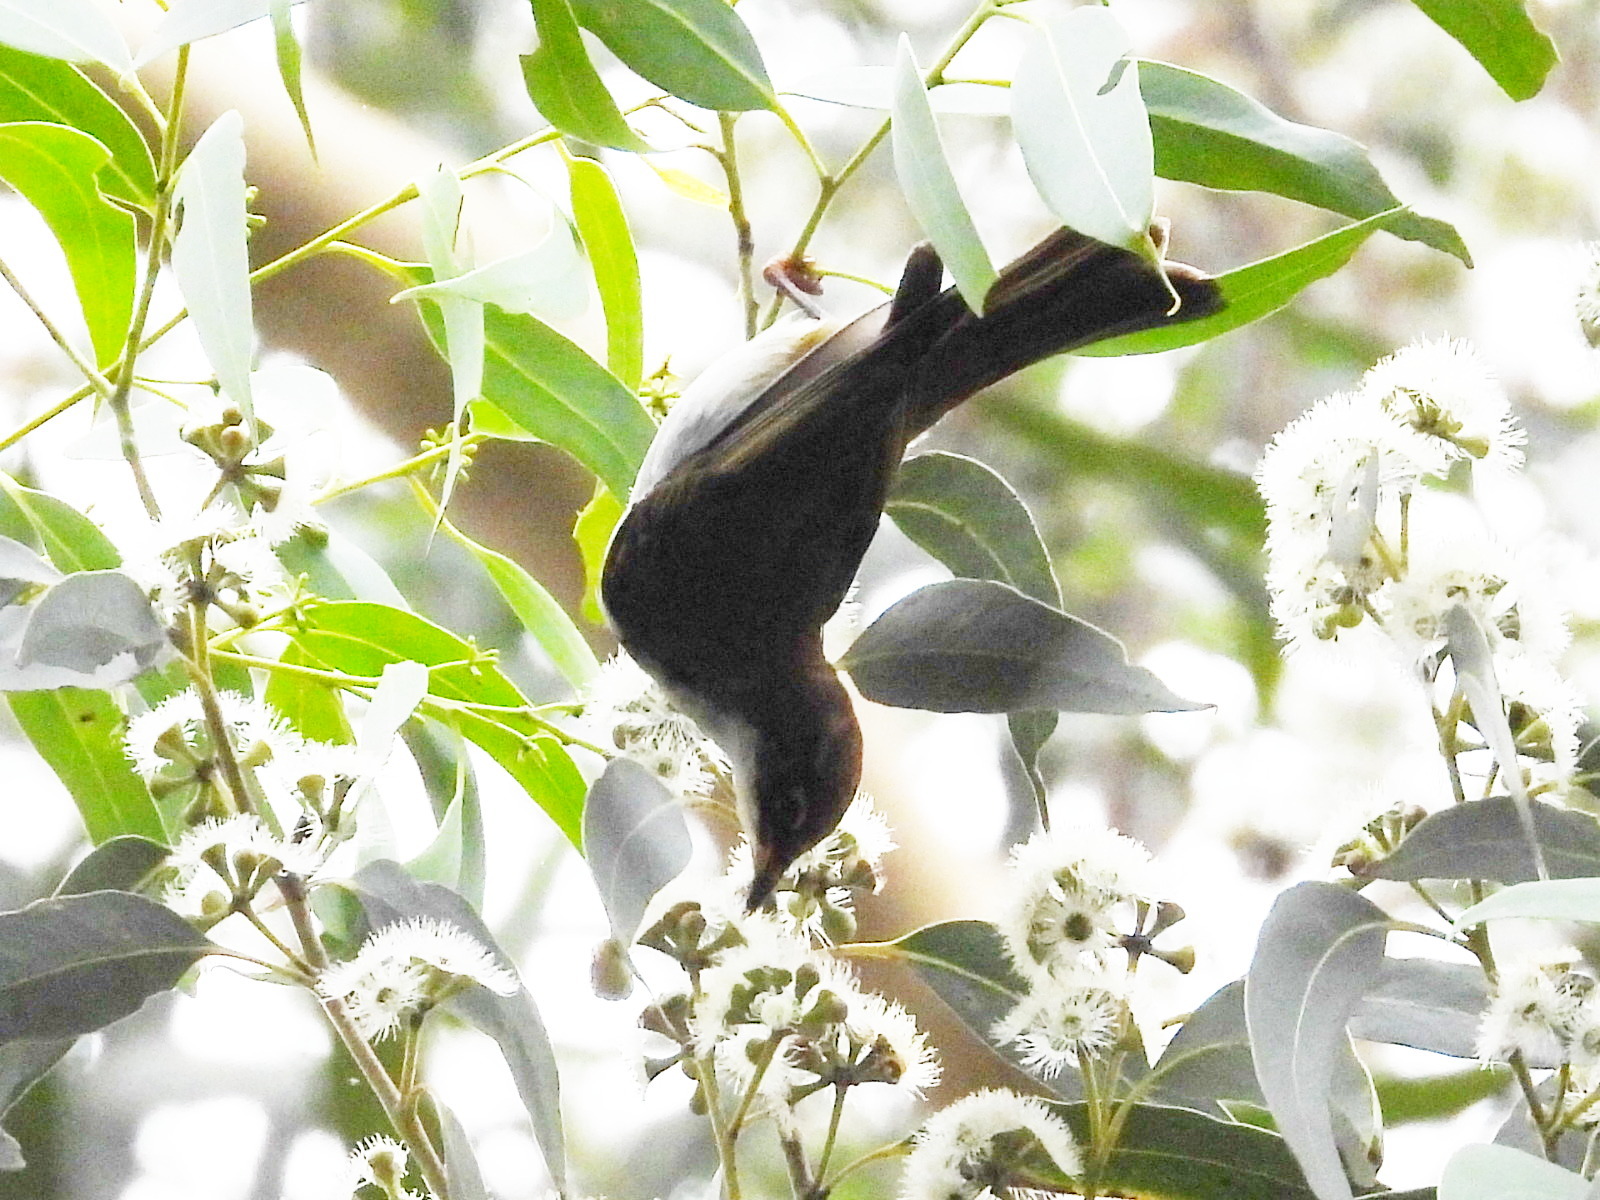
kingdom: Animalia
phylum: Chordata
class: Aves
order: Passeriformes
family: Meliphagidae
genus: Melithreptus
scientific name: Melithreptus lunatus
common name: White-naped honeyeater
